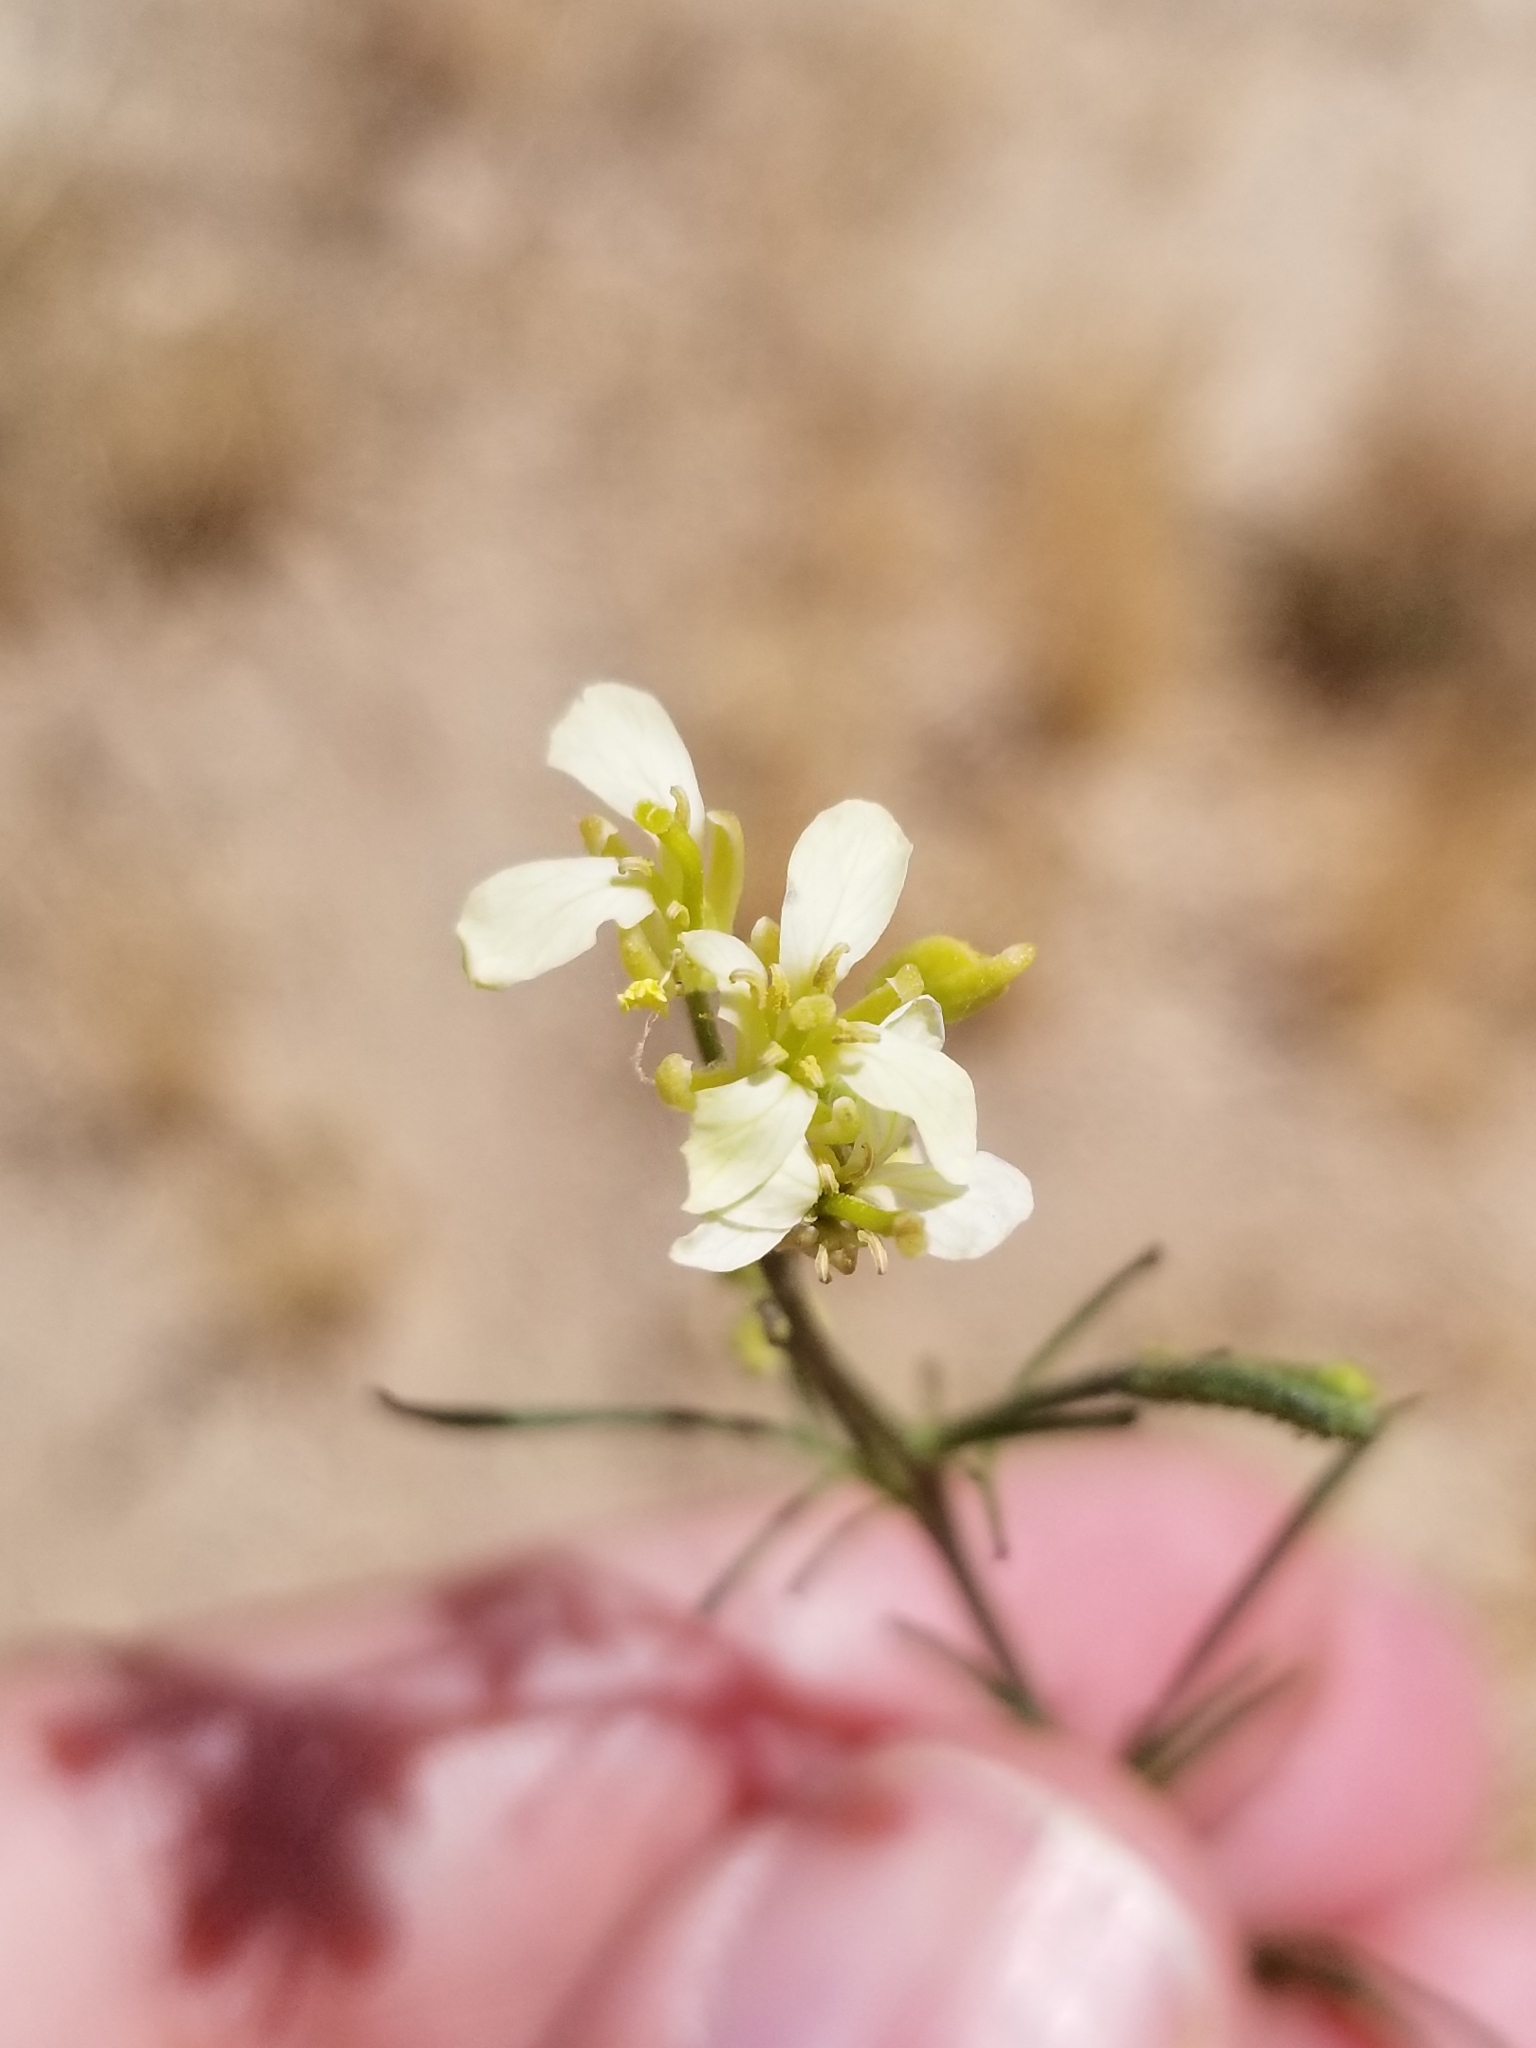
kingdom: Plantae
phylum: Tracheophyta
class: Magnoliopsida
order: Brassicales
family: Brassicaceae
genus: Sisymbrium
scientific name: Sisymbrium altissimum
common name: Tall rocket
